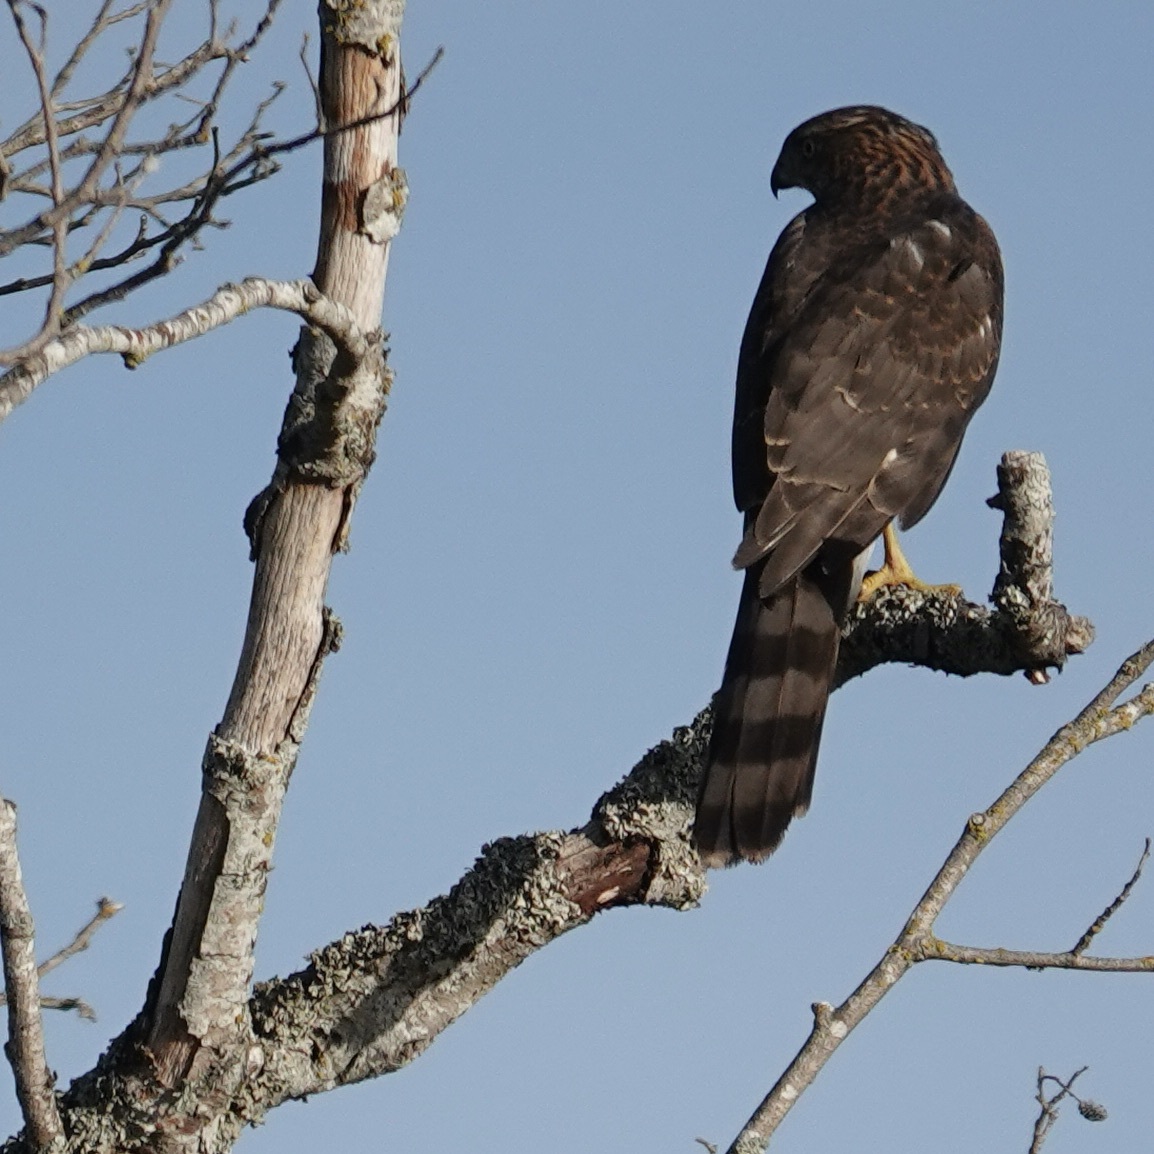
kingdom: Animalia
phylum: Chordata
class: Aves
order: Accipitriformes
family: Accipitridae
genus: Accipiter
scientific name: Accipiter cooperii
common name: Cooper's hawk
